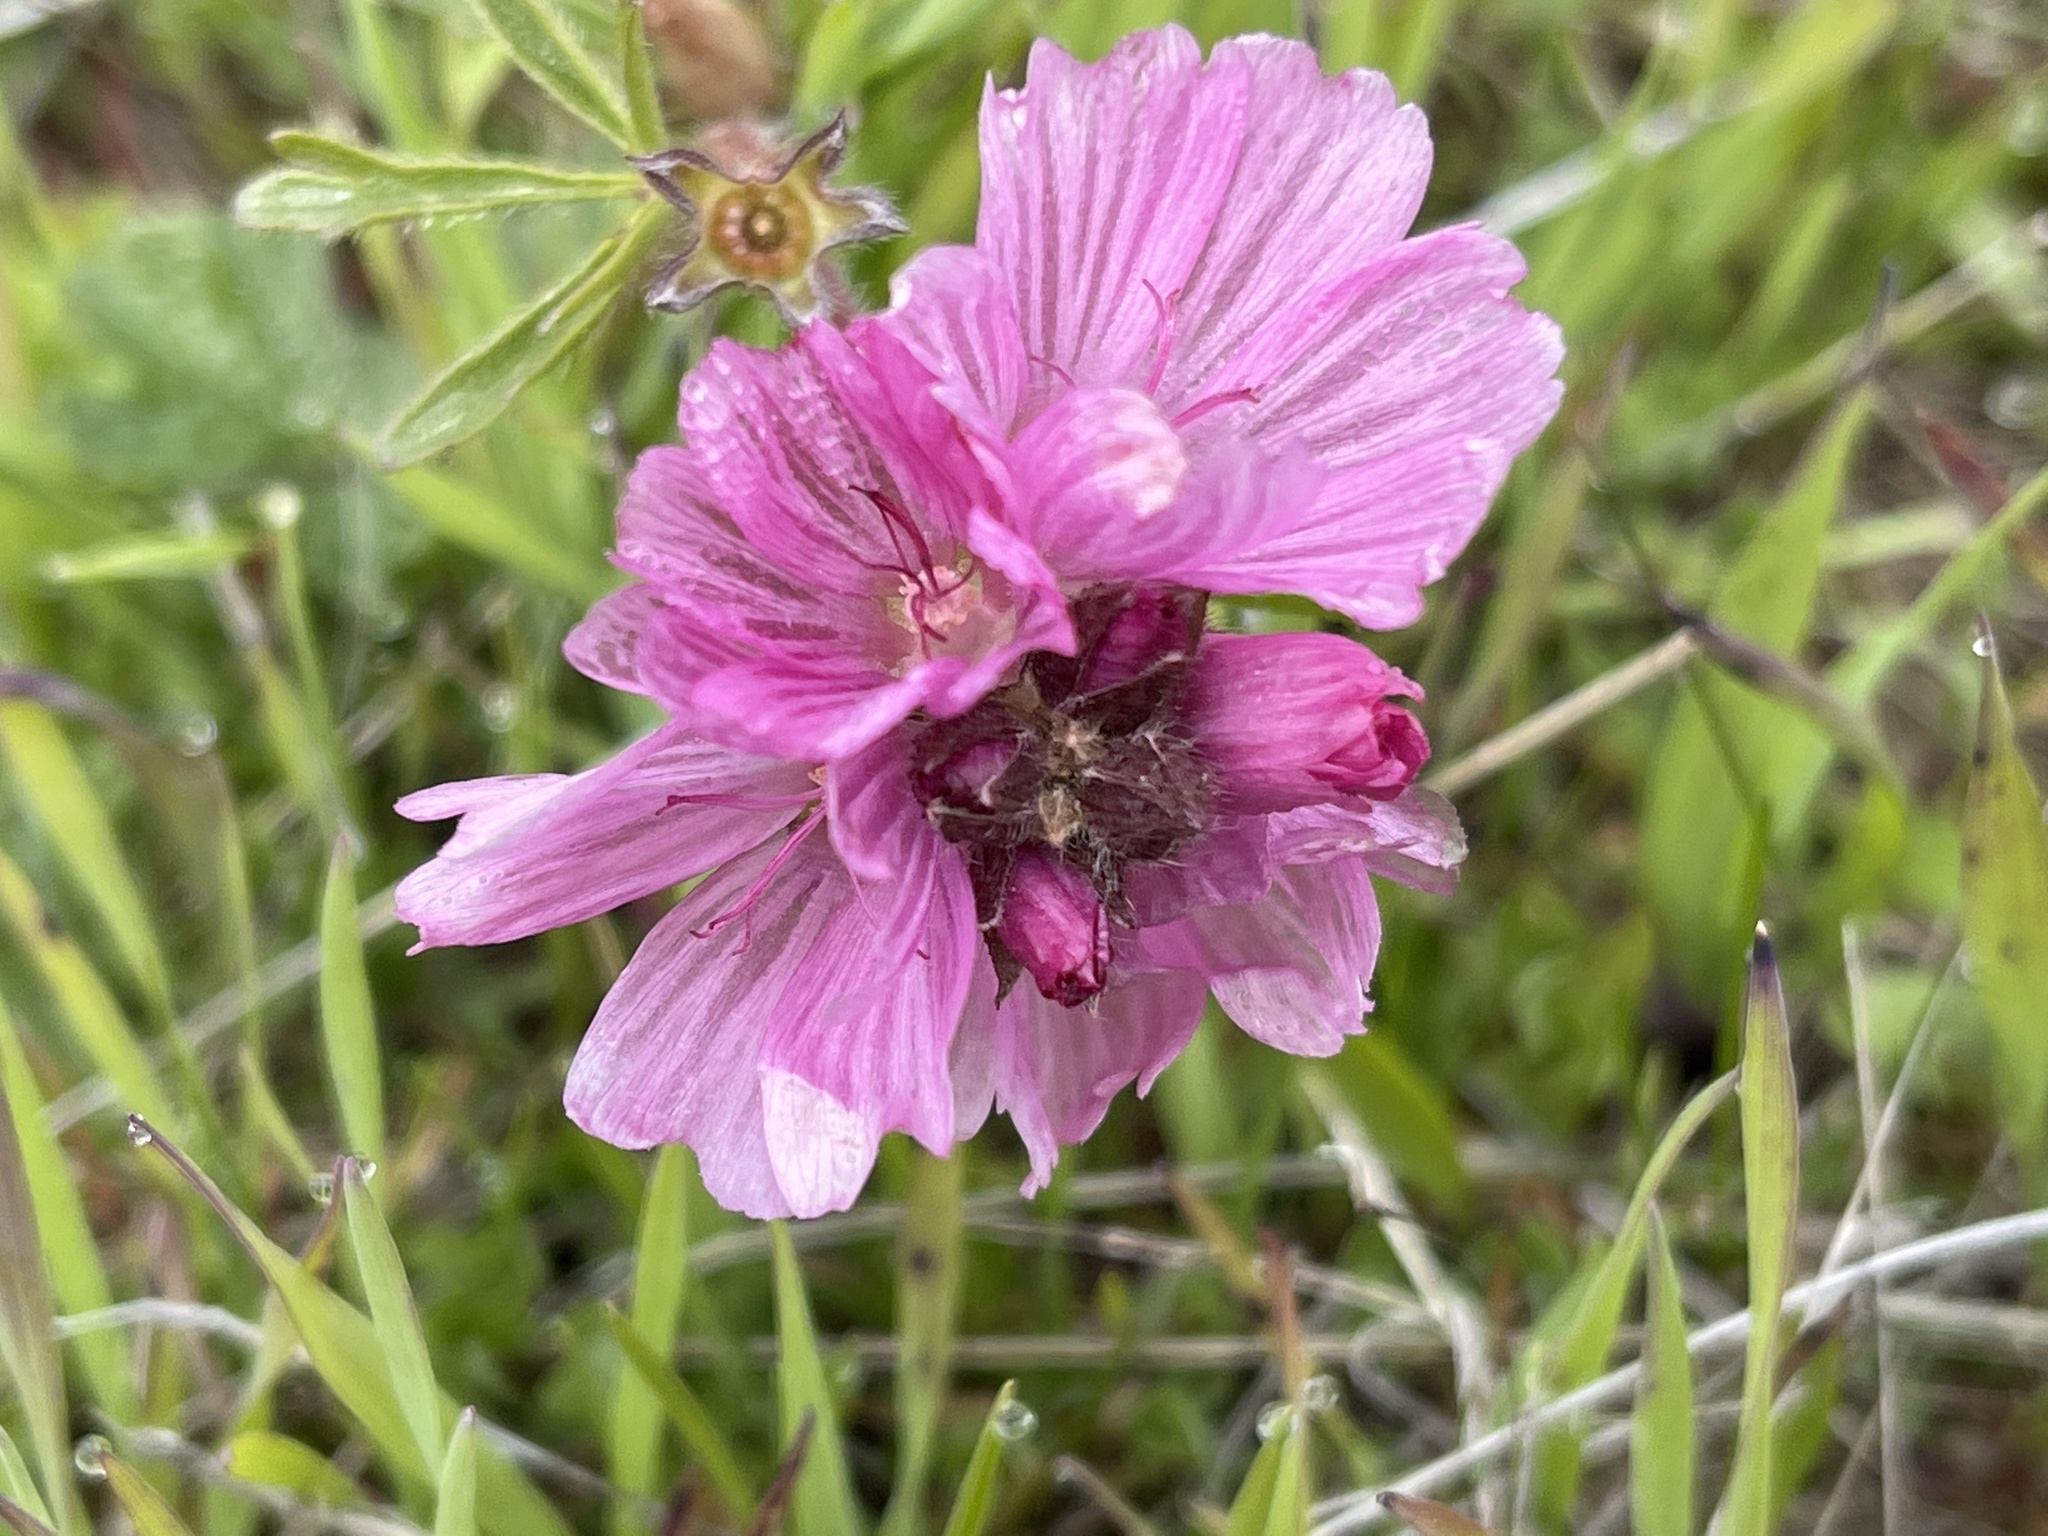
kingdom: Plantae
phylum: Tracheophyta
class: Magnoliopsida
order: Malvales
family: Malvaceae
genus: Sidalcea
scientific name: Sidalcea malviflora
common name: Greek mallow
